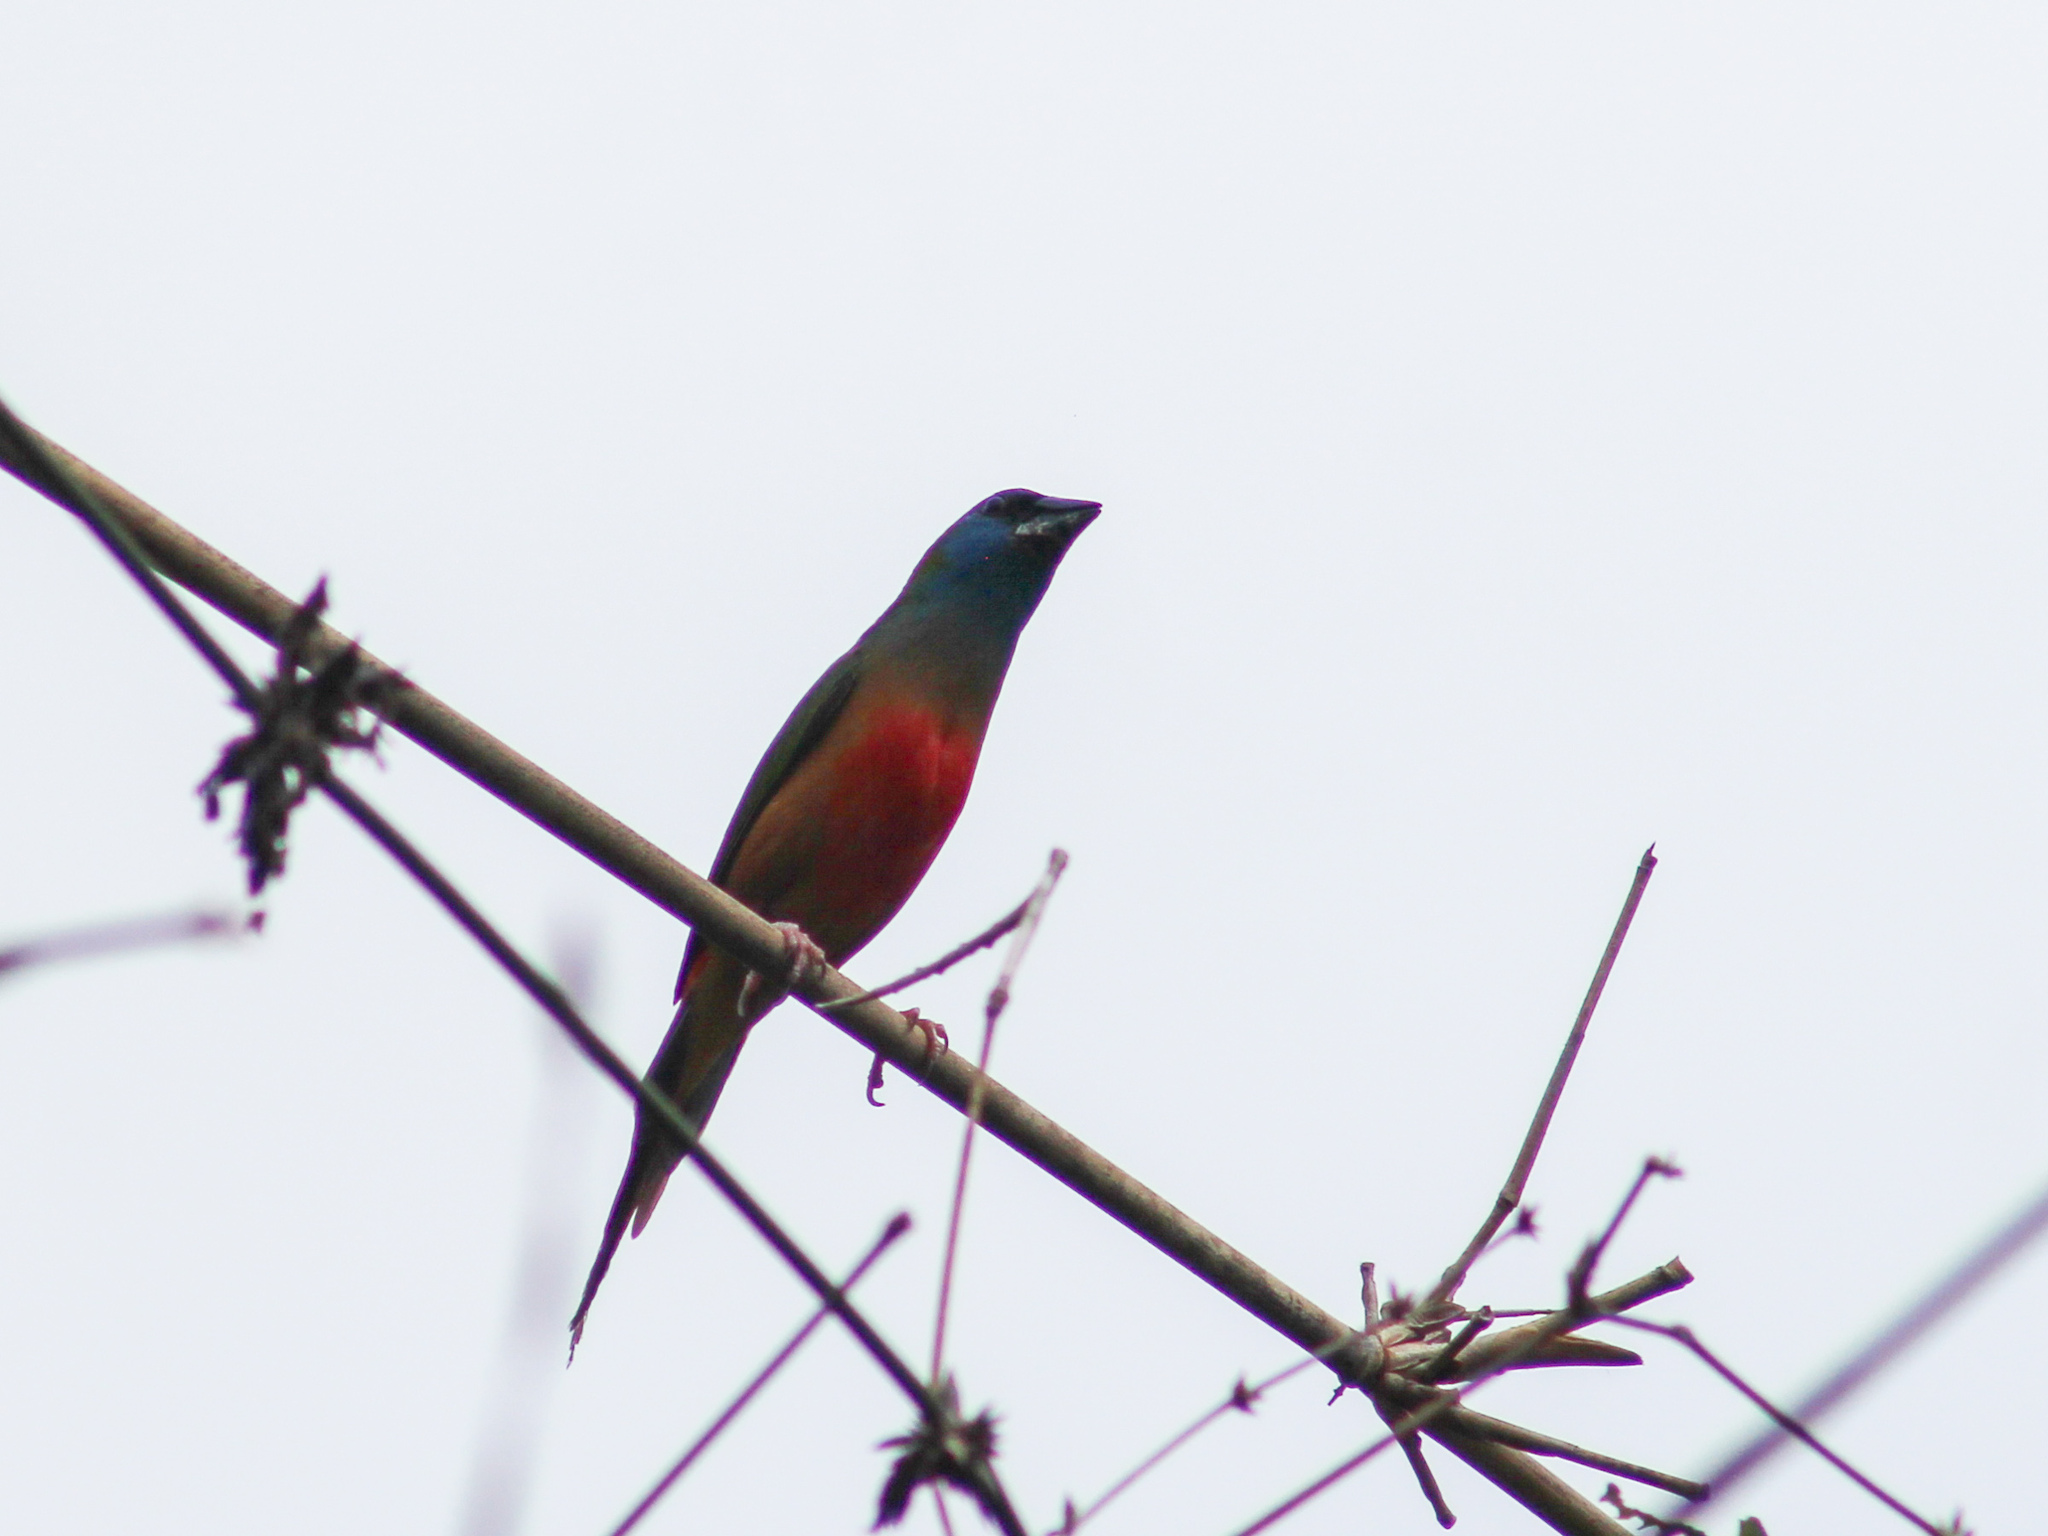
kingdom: Animalia
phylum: Chordata
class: Aves
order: Passeriformes
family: Estrildidae
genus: Erythrura
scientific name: Erythrura prasina
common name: Pin-tailed parrotfinch
